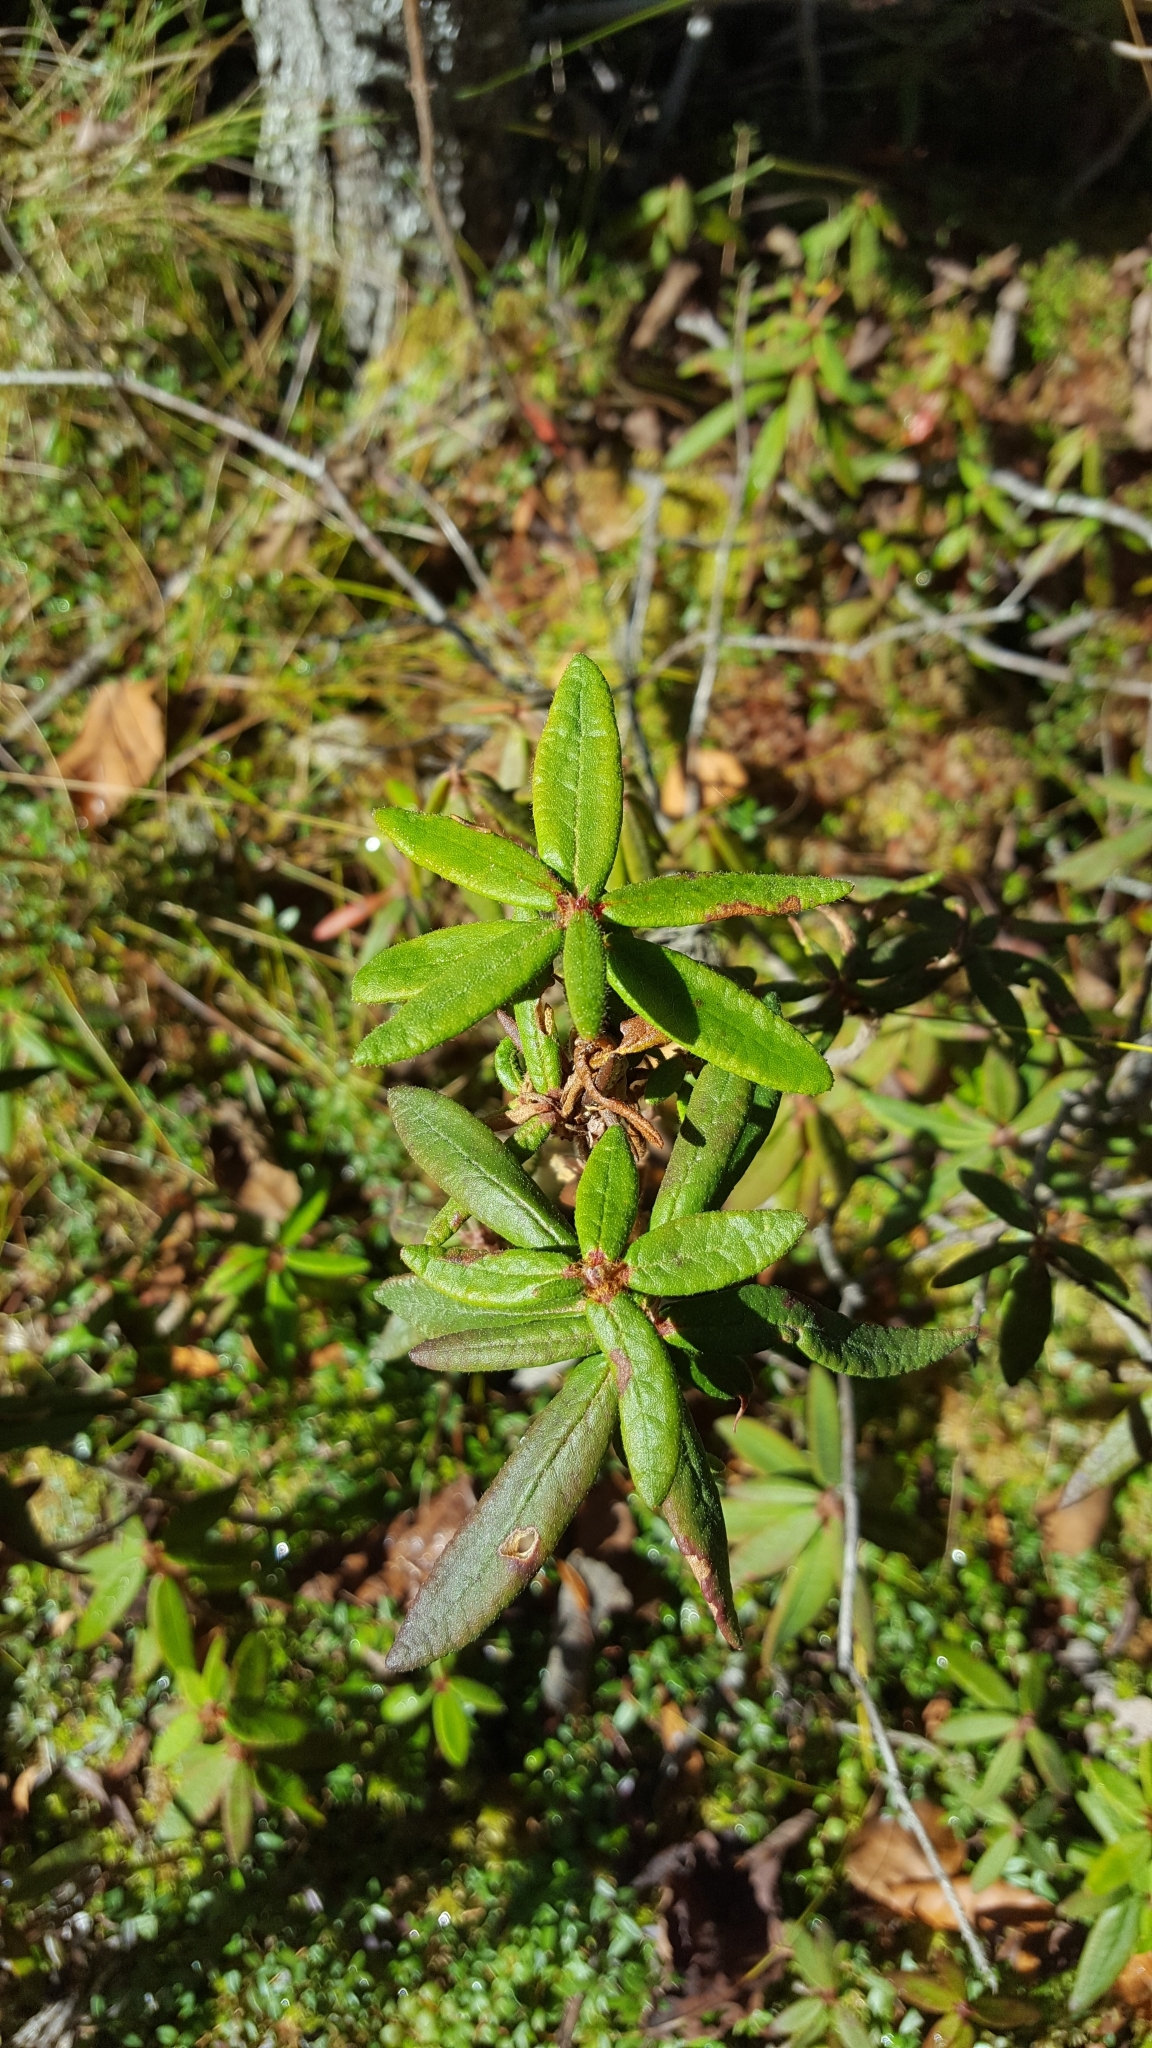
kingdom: Plantae
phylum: Tracheophyta
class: Magnoliopsida
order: Ericales
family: Ericaceae
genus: Rhododendron
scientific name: Rhododendron groenlandicum
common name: Bog labrador tea
